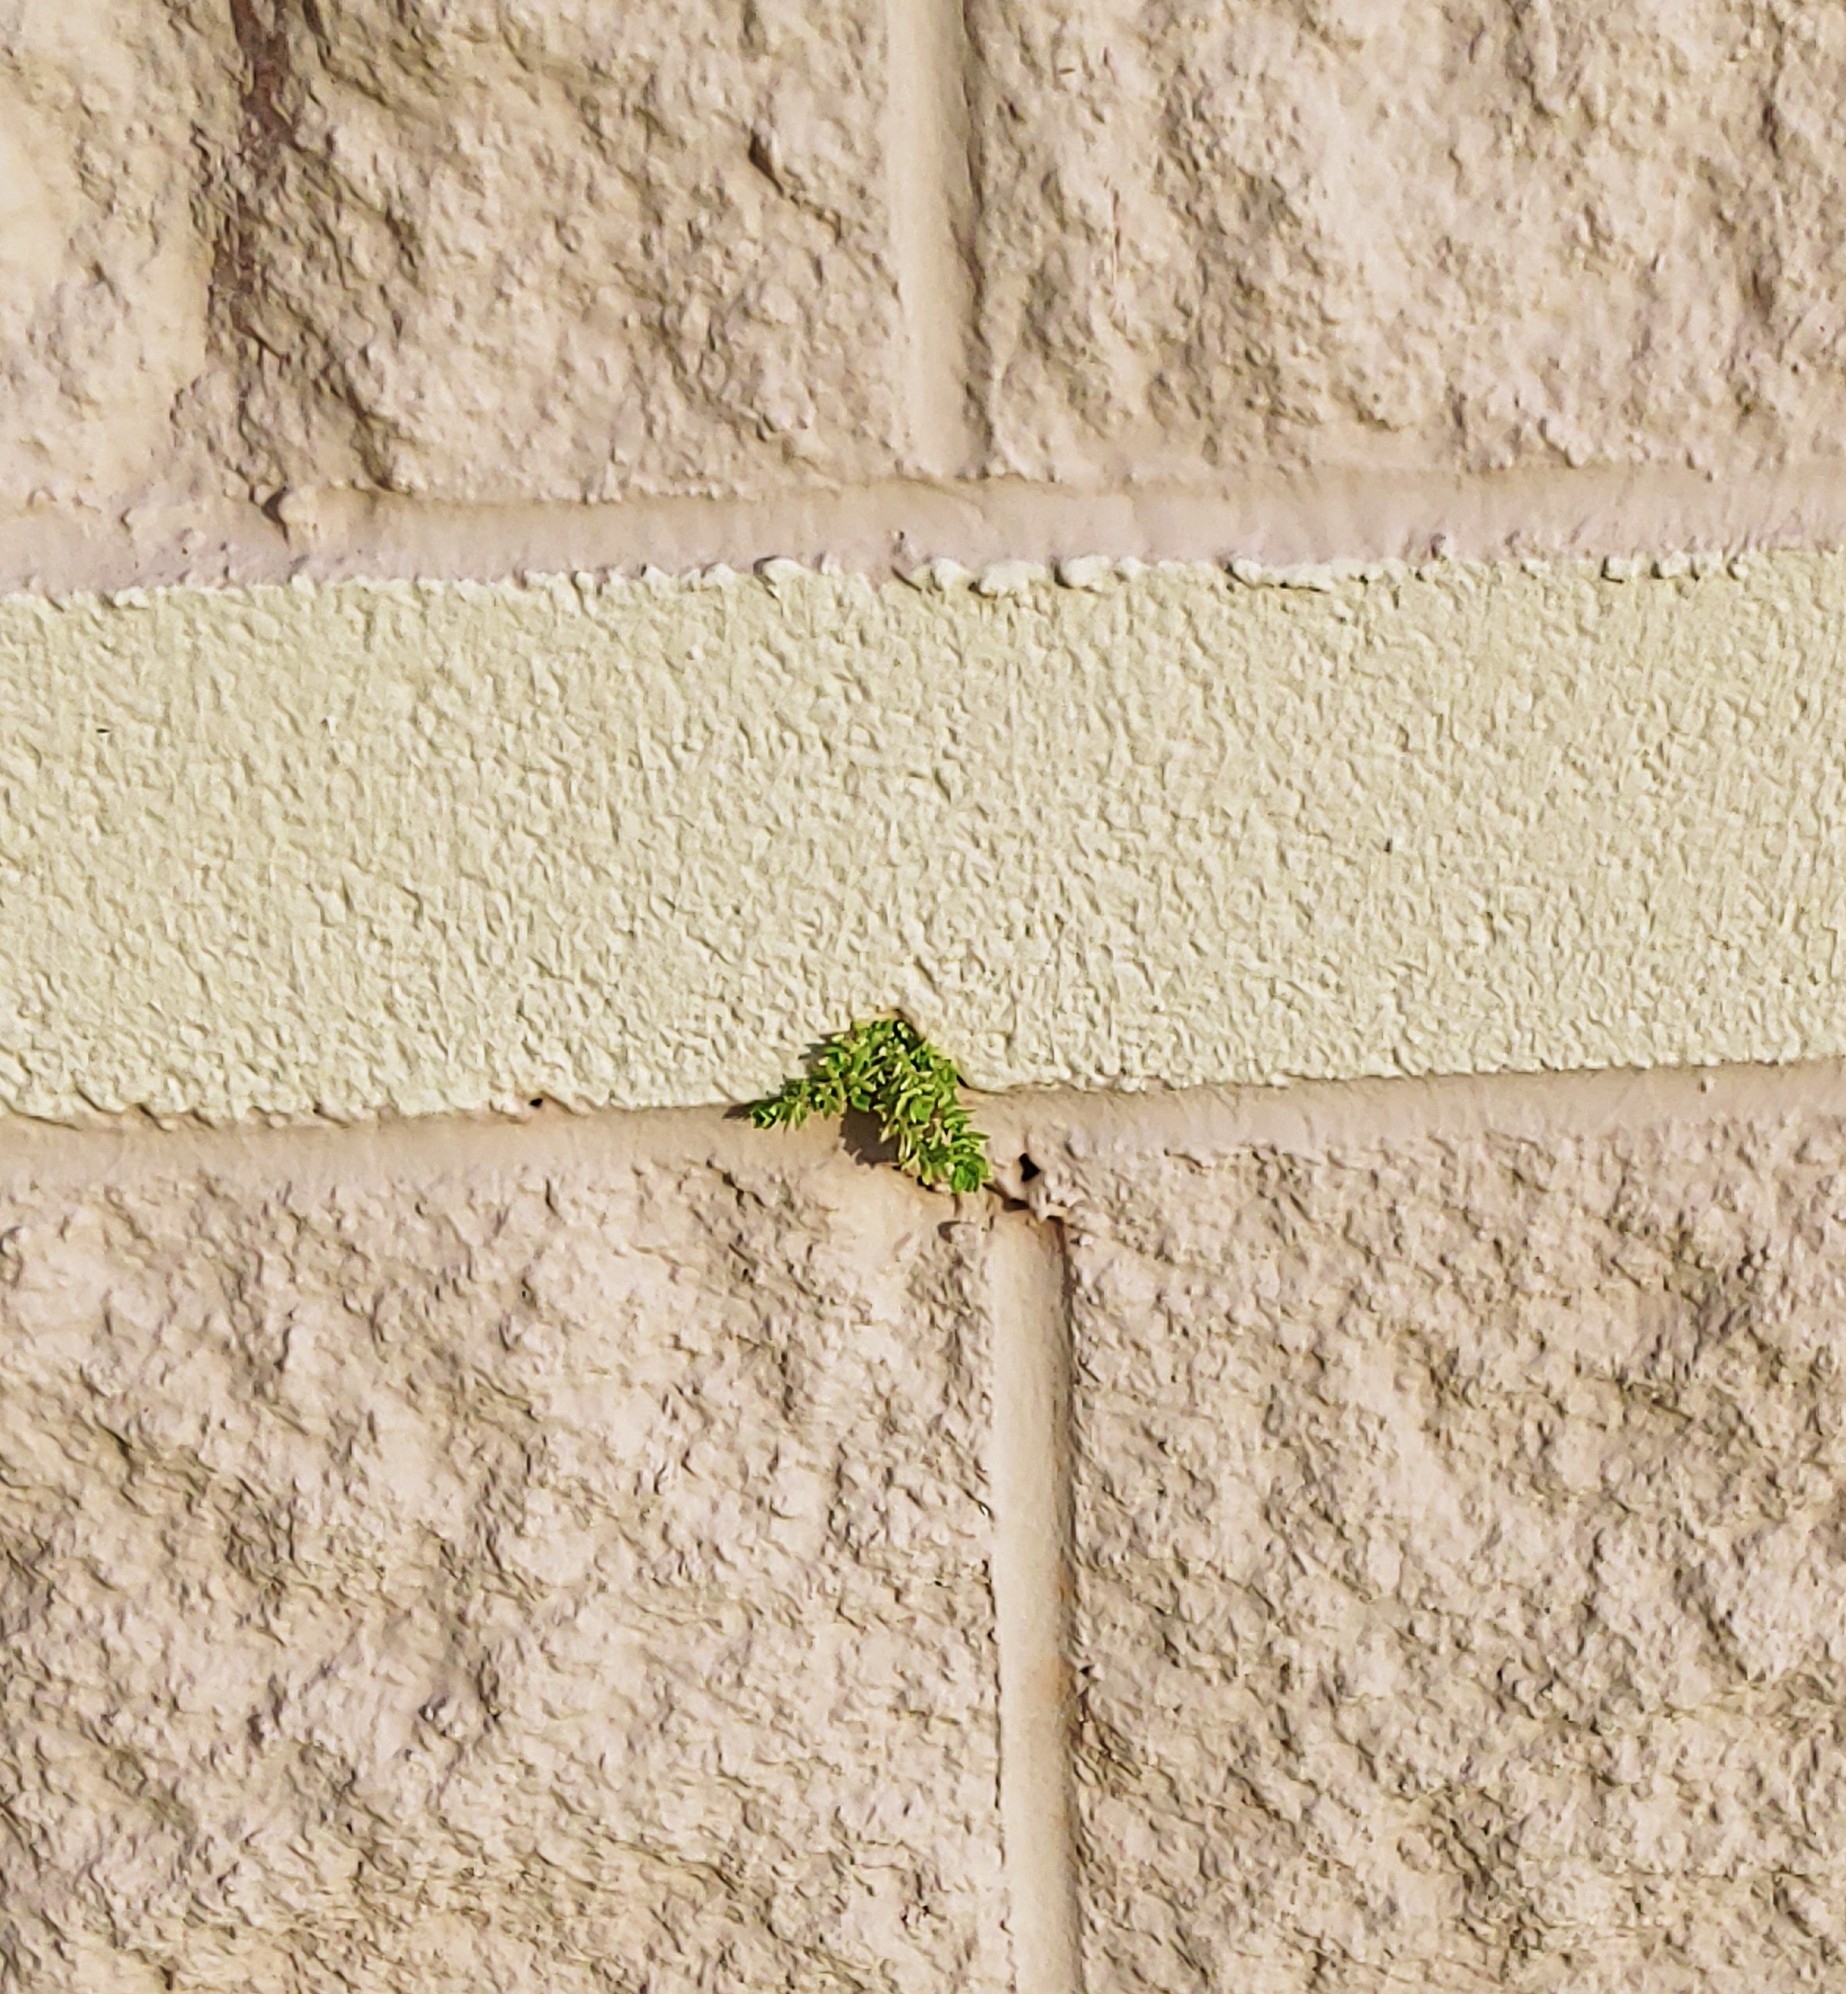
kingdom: Plantae
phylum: Tracheophyta
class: Magnoliopsida
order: Rosales
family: Urticaceae
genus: Pilea
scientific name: Pilea microphylla
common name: Artillery-plant
